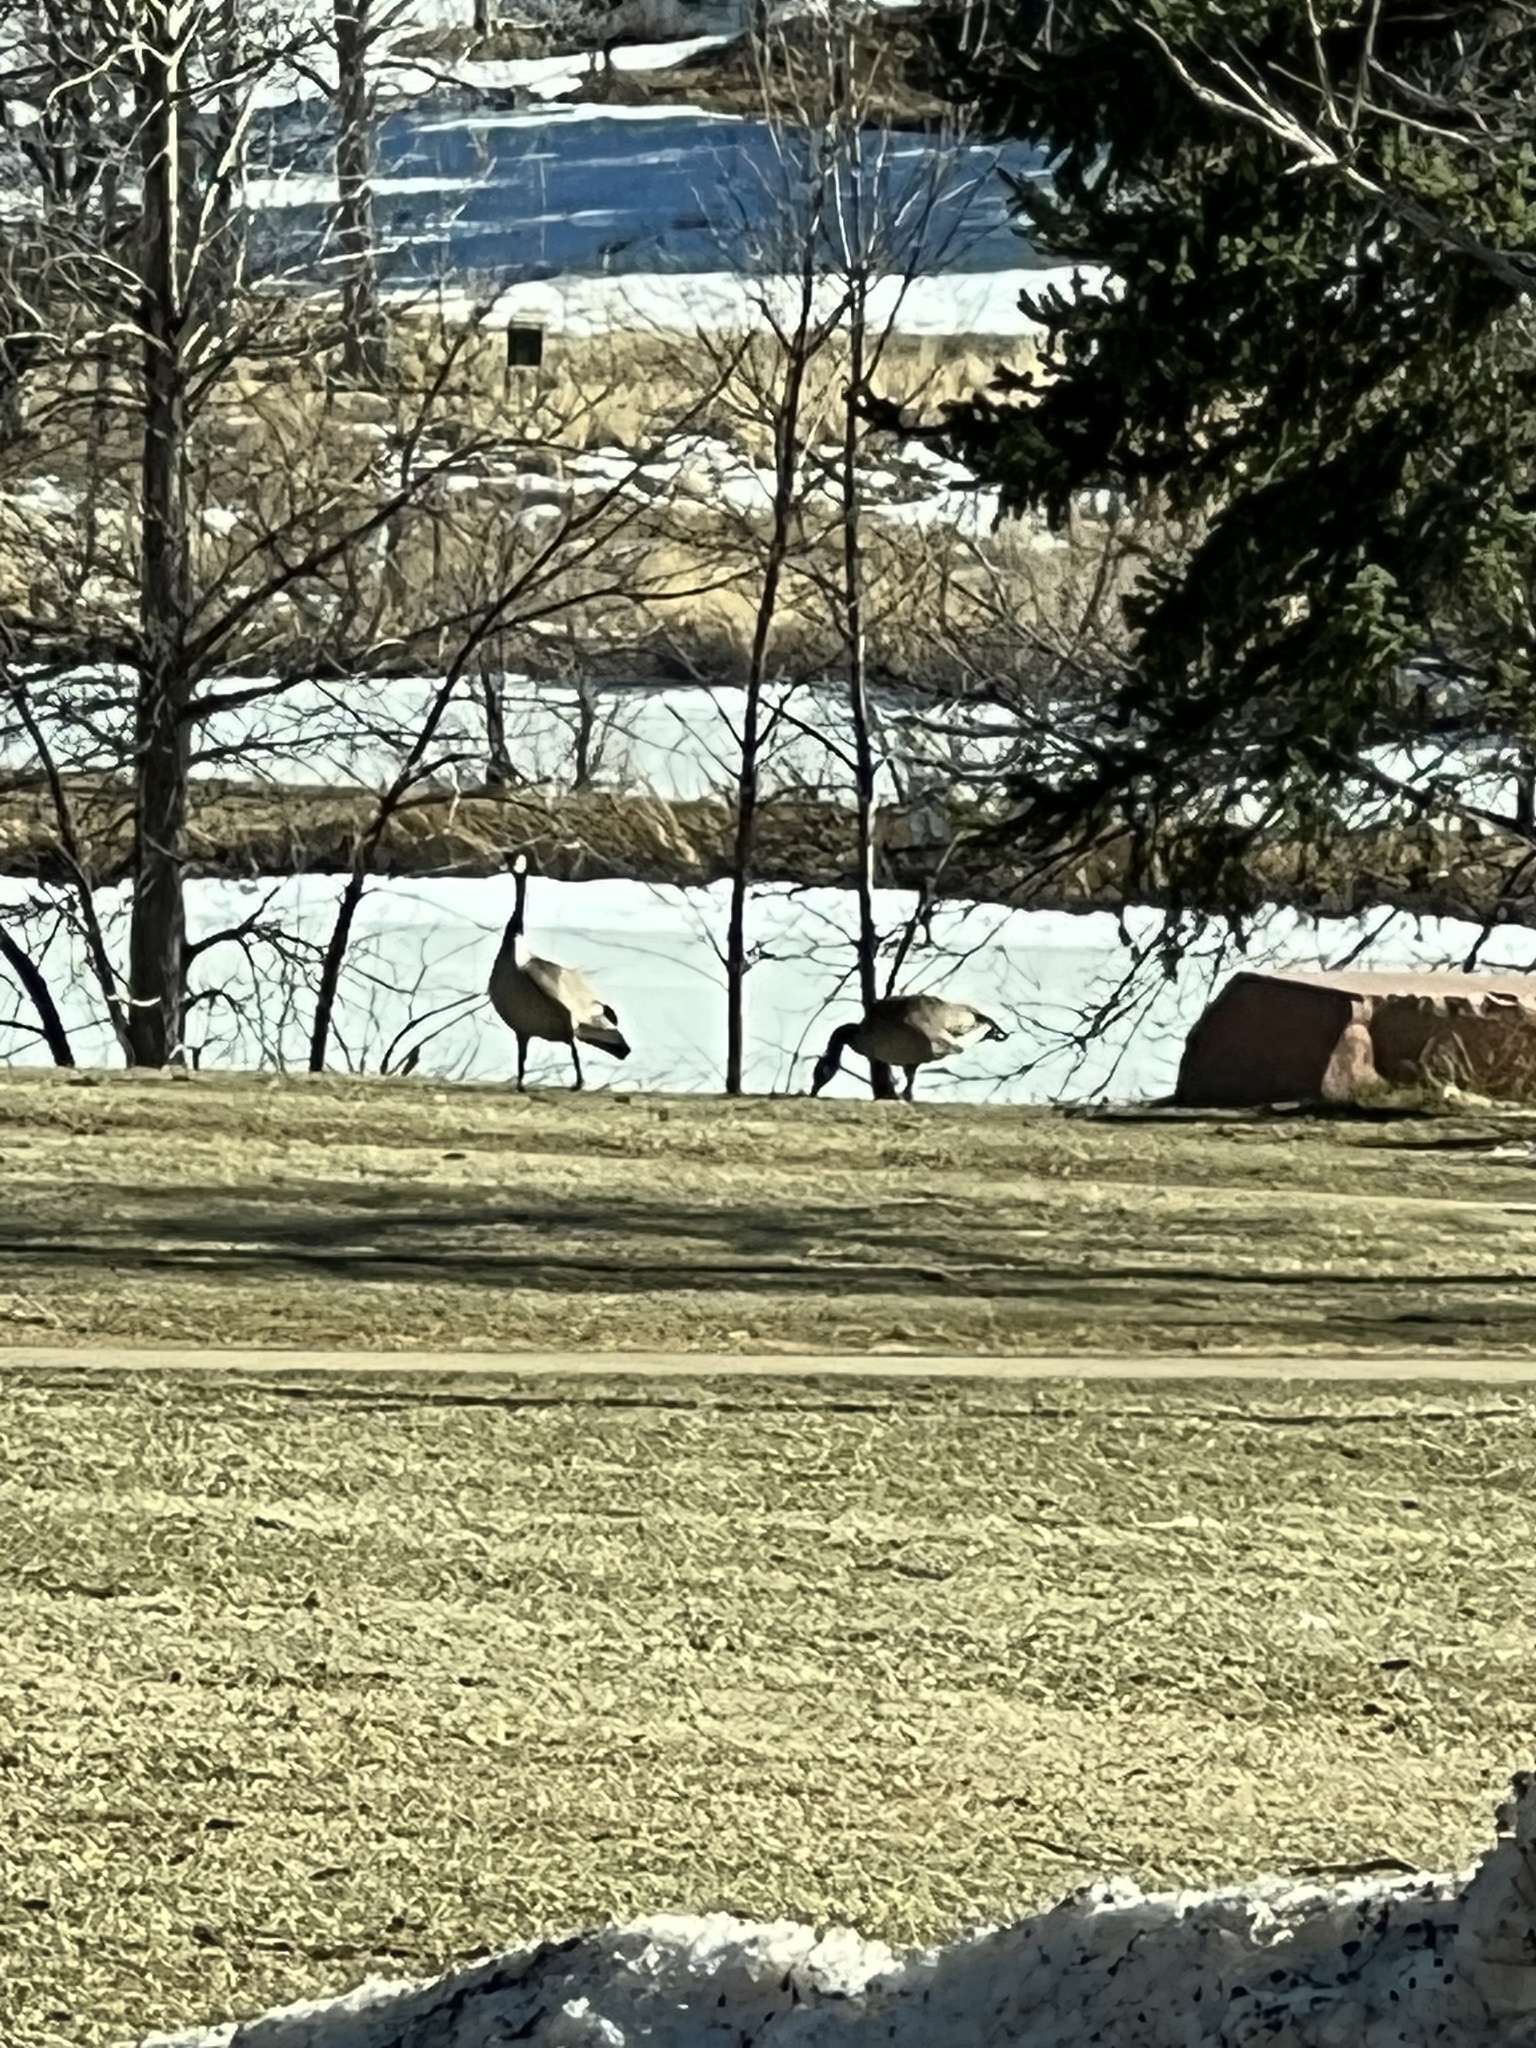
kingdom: Animalia
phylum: Chordata
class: Aves
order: Anseriformes
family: Anatidae
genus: Branta
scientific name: Branta canadensis
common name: Canada goose
